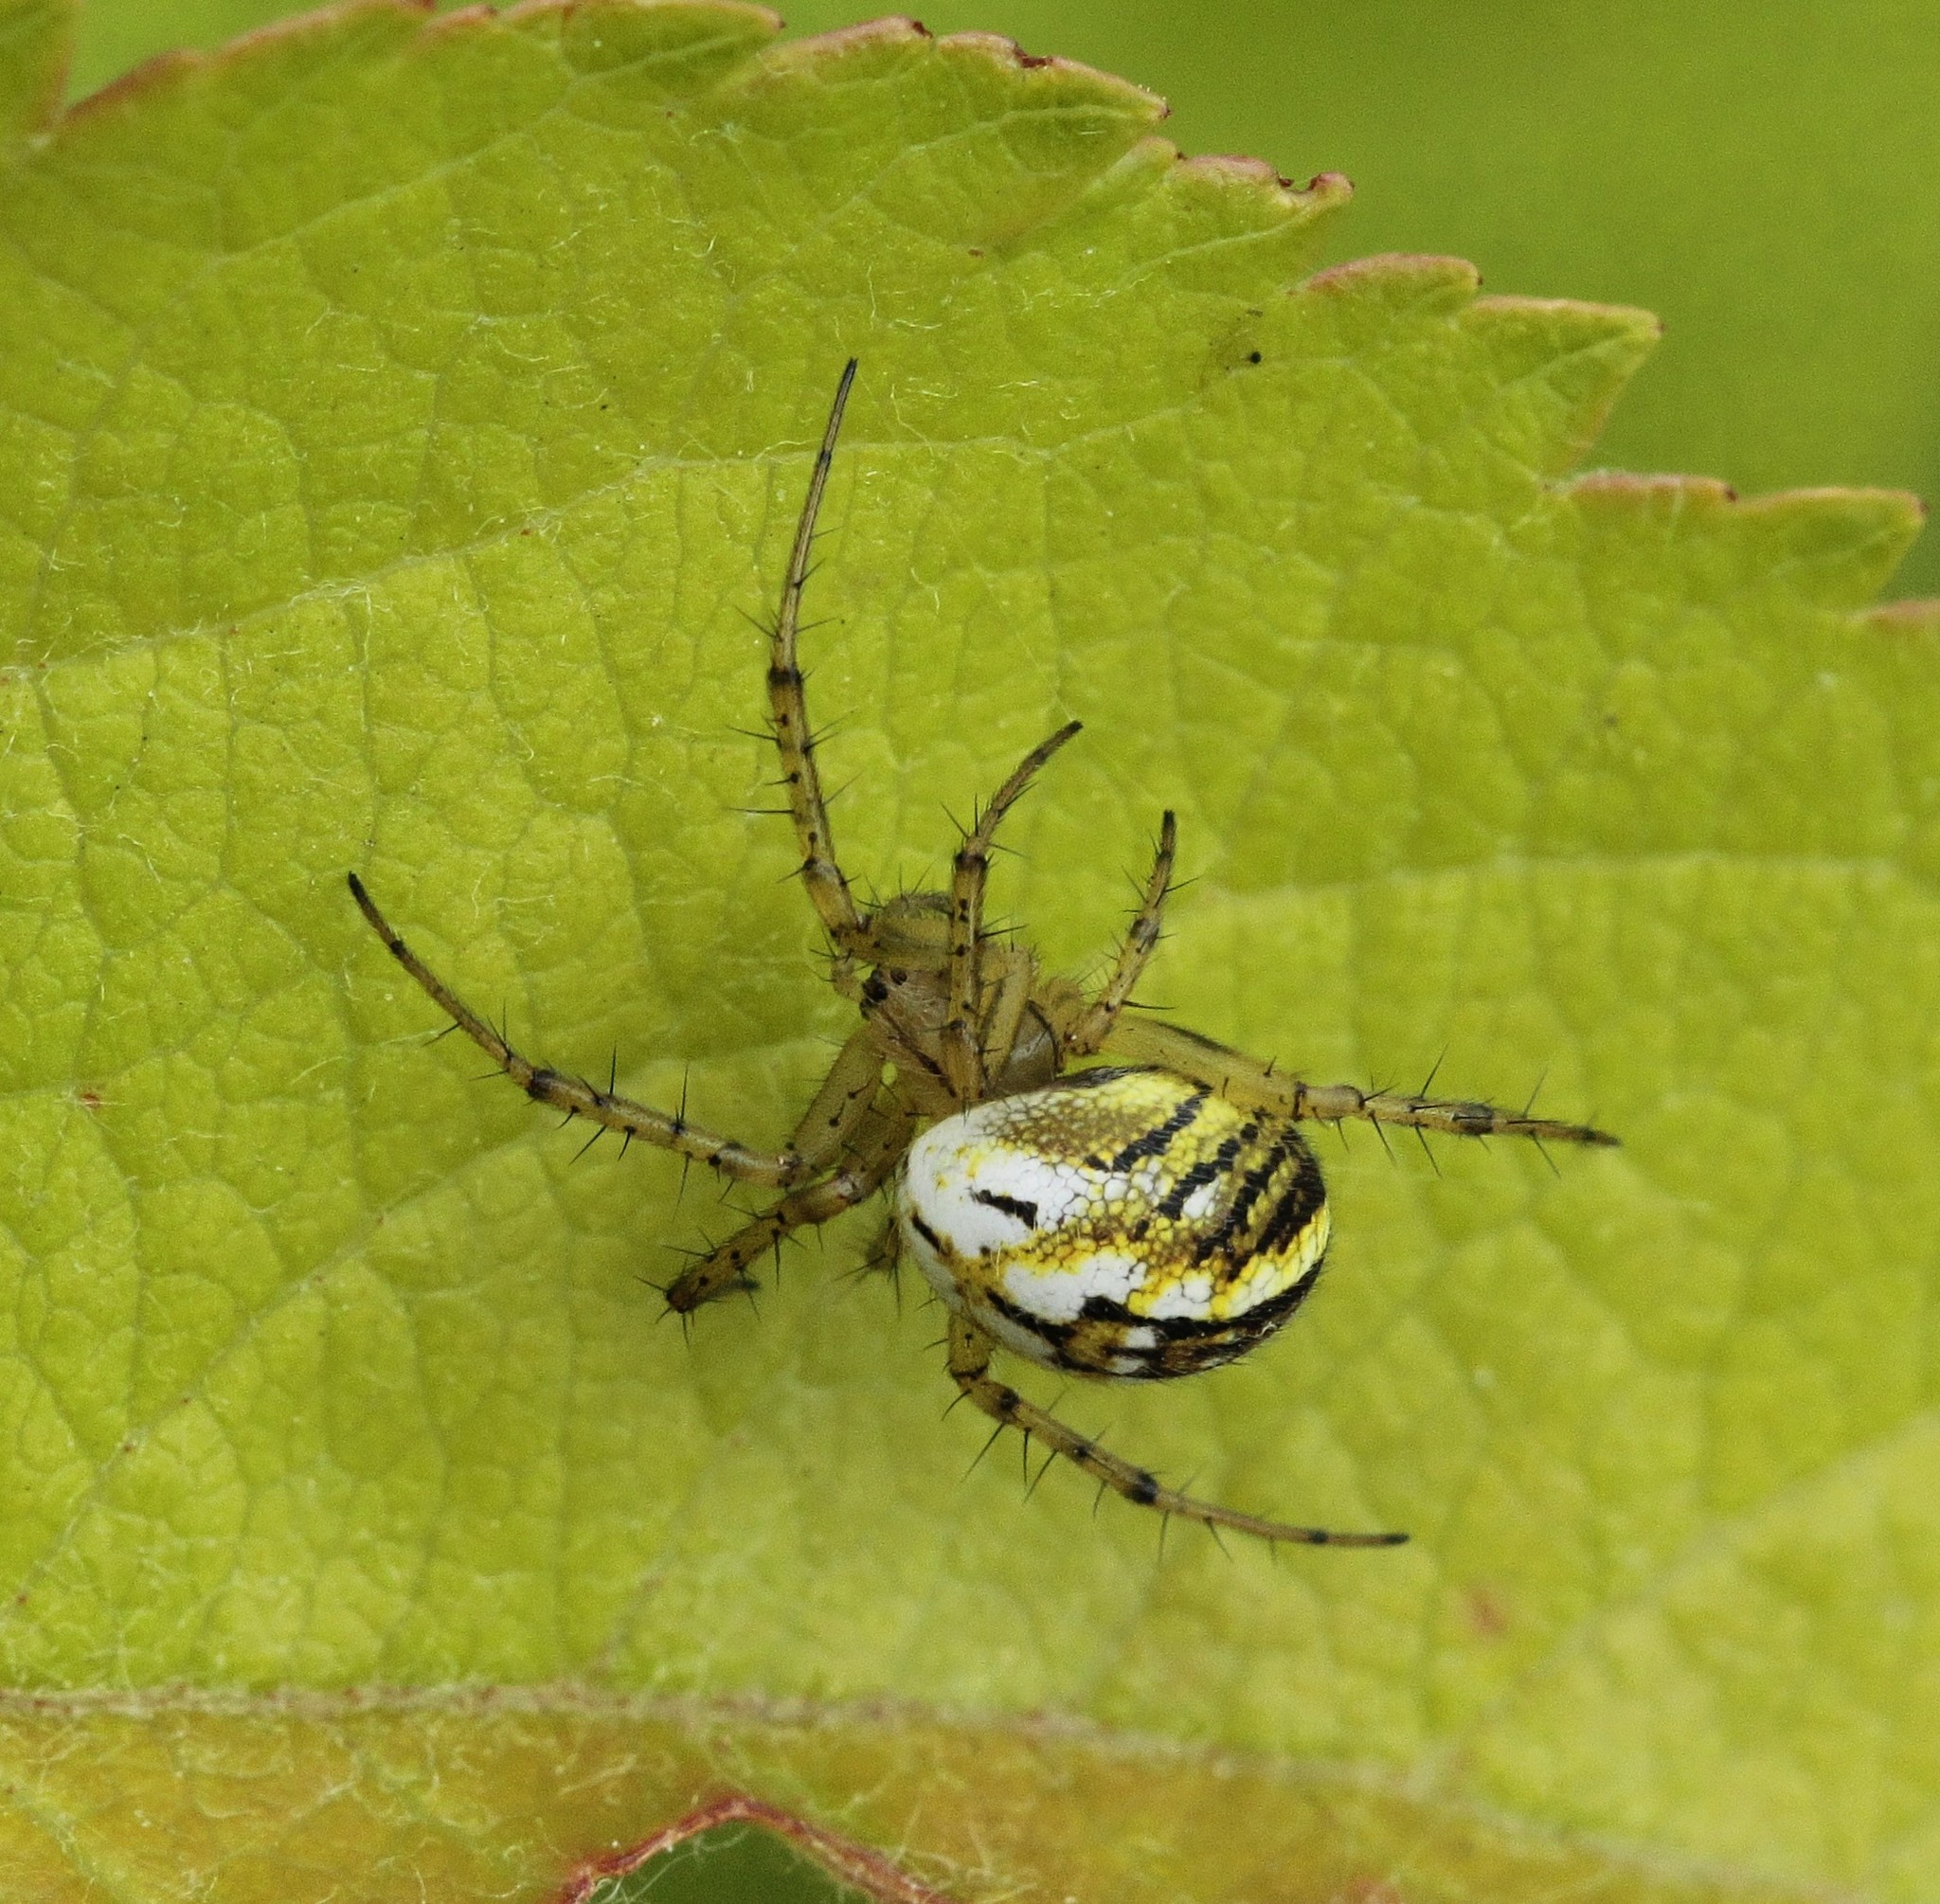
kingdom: Animalia
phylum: Arthropoda
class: Arachnida
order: Araneae
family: Araneidae
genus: Mangora
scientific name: Mangora acalypha
